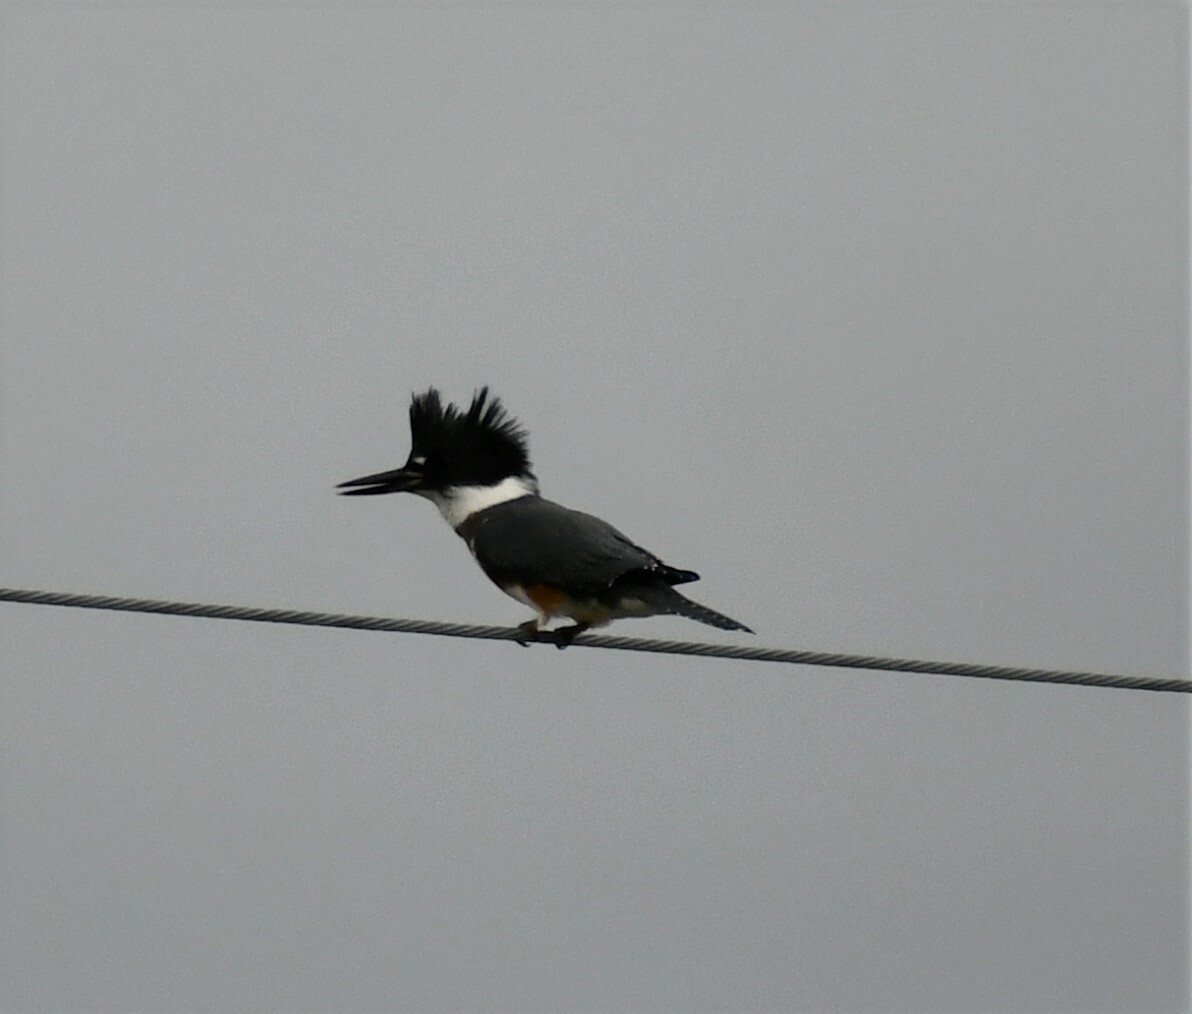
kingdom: Animalia
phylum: Chordata
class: Aves
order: Coraciiformes
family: Alcedinidae
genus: Megaceryle
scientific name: Megaceryle alcyon
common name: Belted kingfisher
